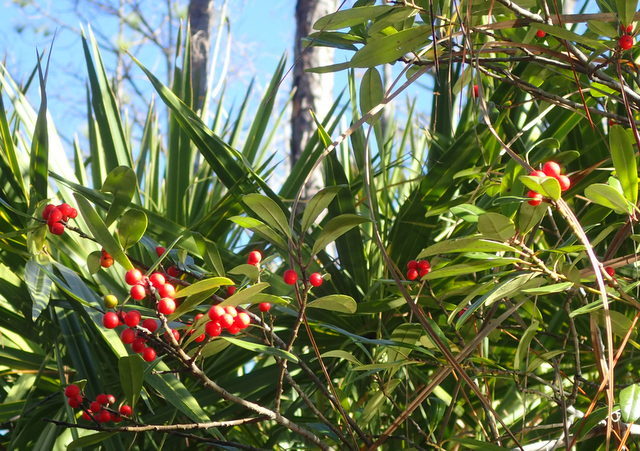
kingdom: Plantae
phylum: Tracheophyta
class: Magnoliopsida
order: Aquifoliales
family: Aquifoliaceae
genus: Ilex
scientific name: Ilex cassine
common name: Dahoon
